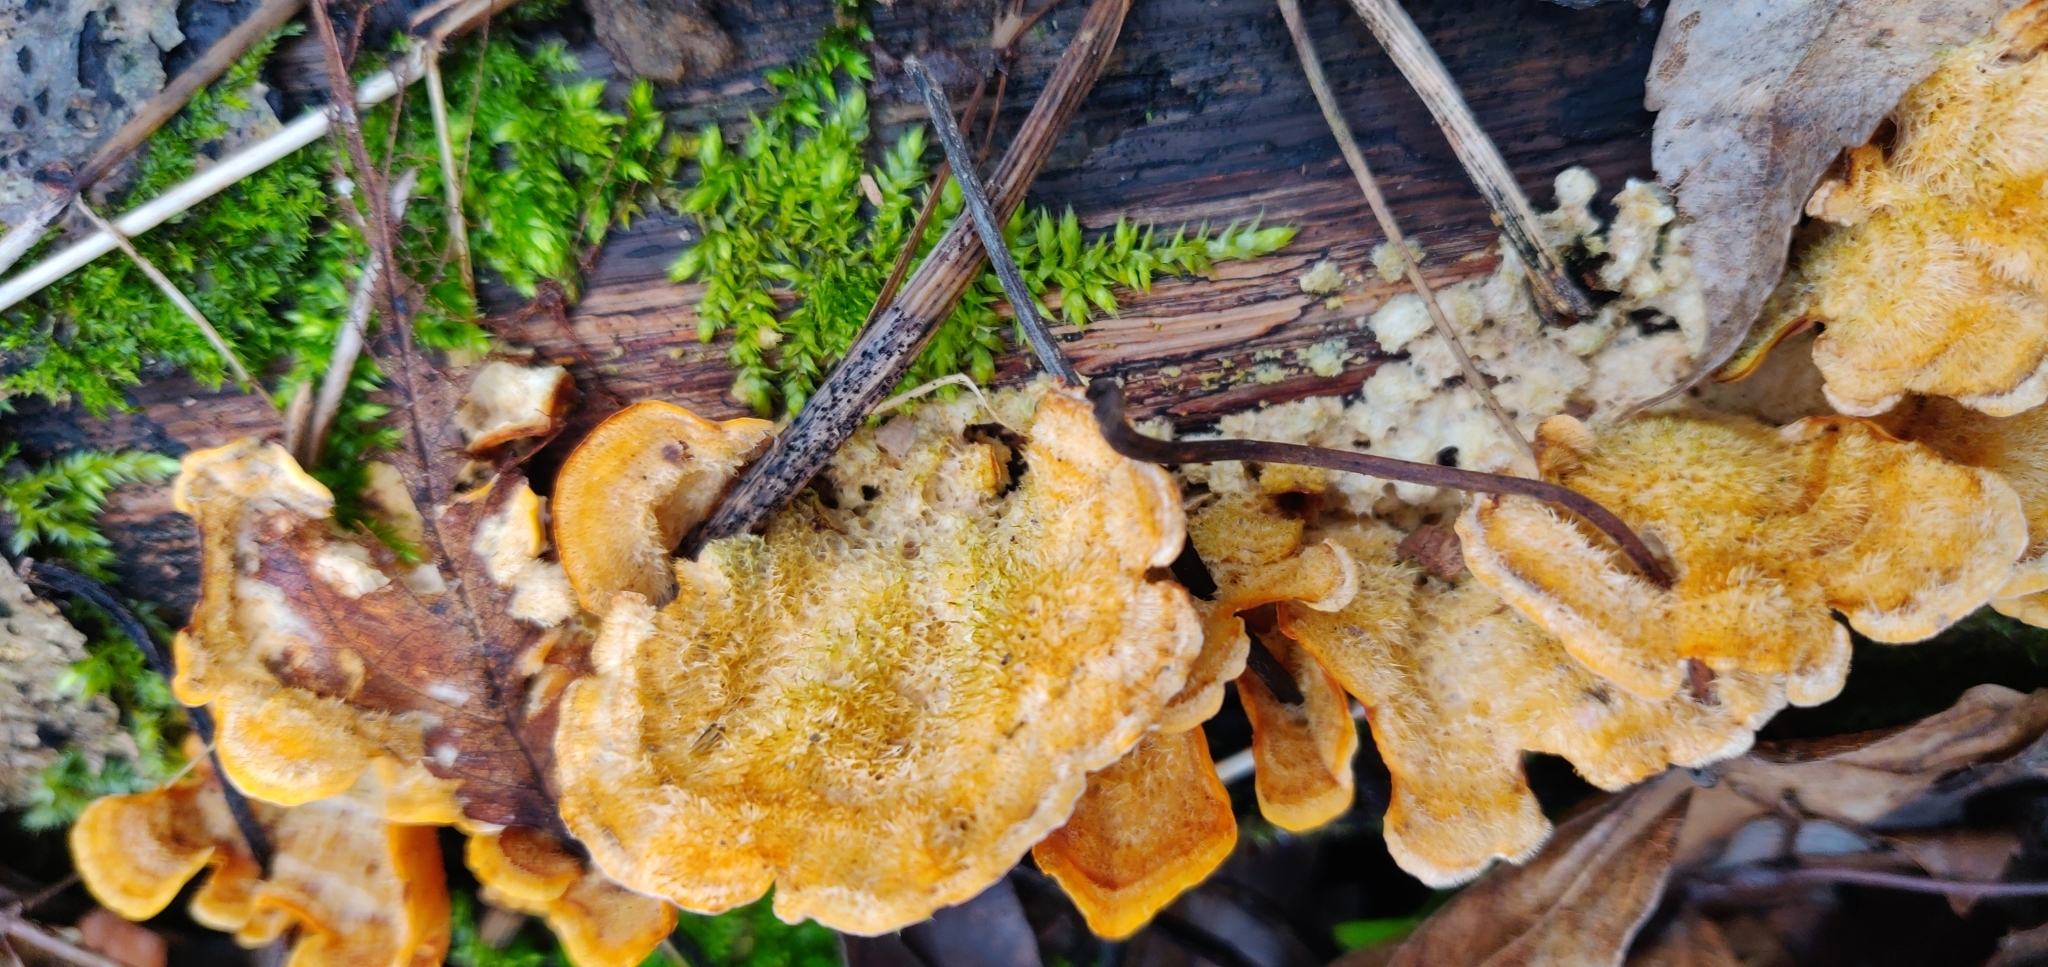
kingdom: Fungi
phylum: Basidiomycota
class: Agaricomycetes
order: Russulales
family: Stereaceae
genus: Stereum
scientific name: Stereum hirsutum
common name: Hairy curtain crust
